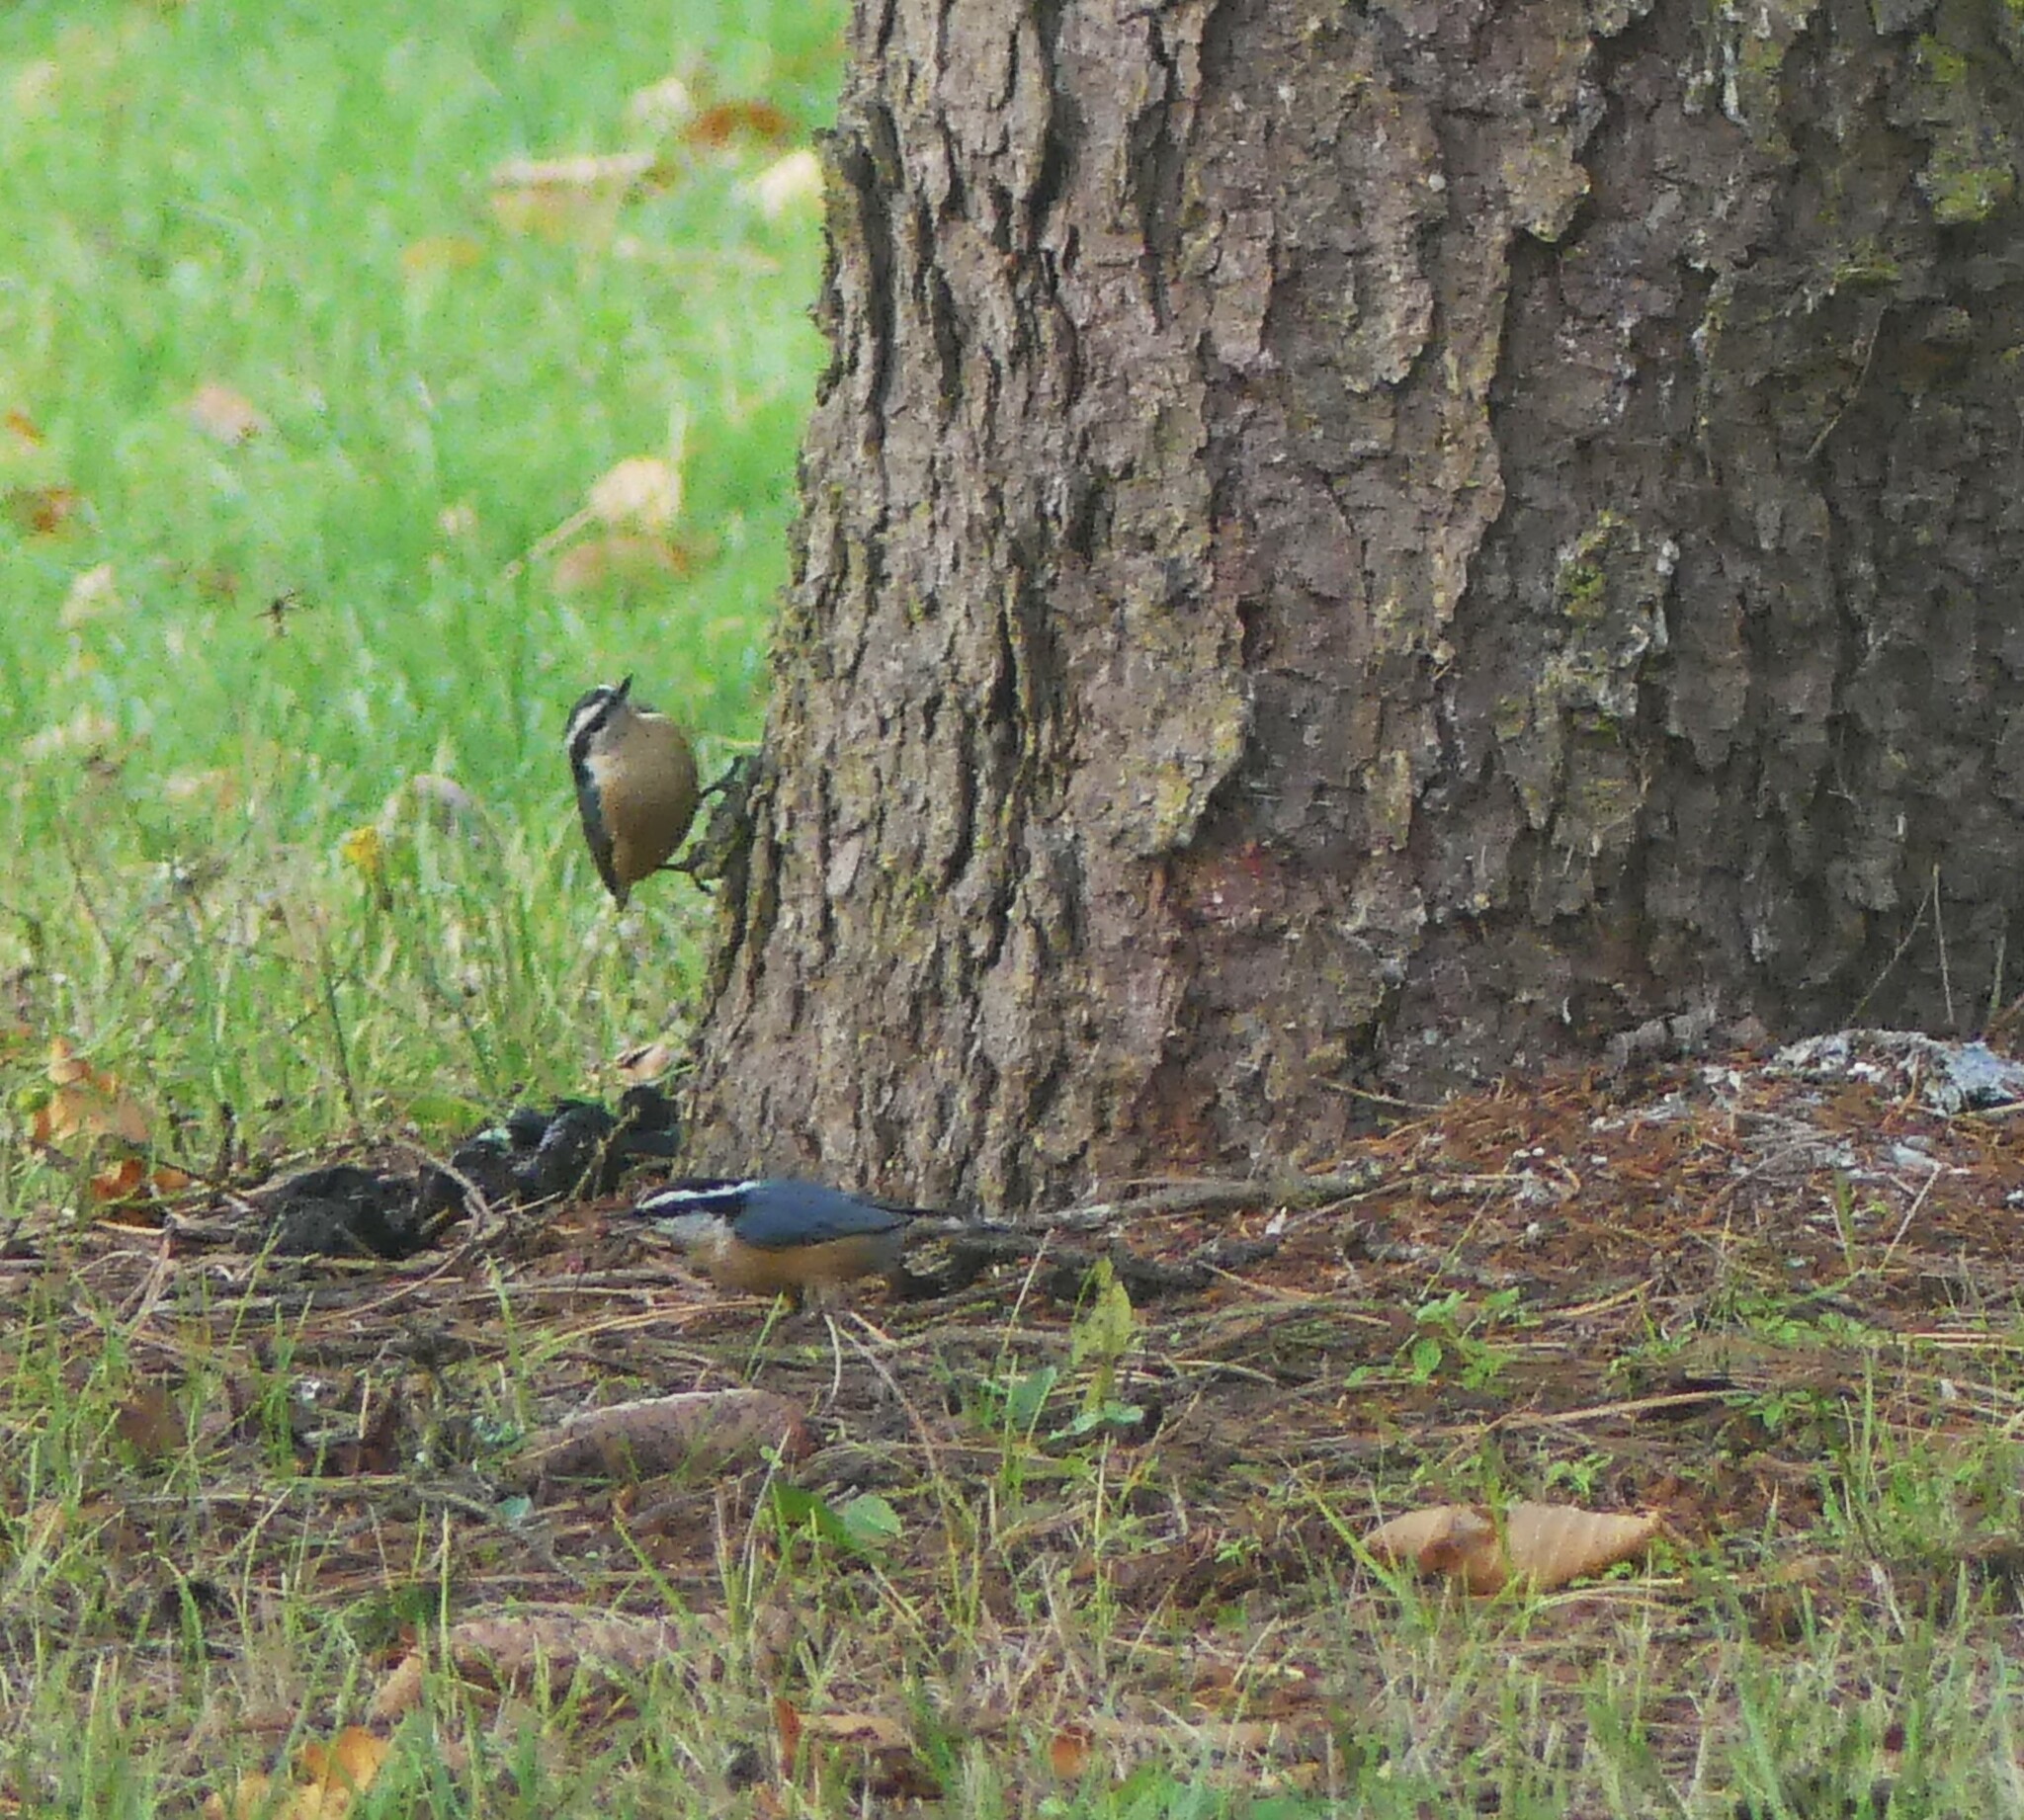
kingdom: Animalia
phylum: Chordata
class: Aves
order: Passeriformes
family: Sittidae
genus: Sitta
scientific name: Sitta canadensis
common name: Red-breasted nuthatch
